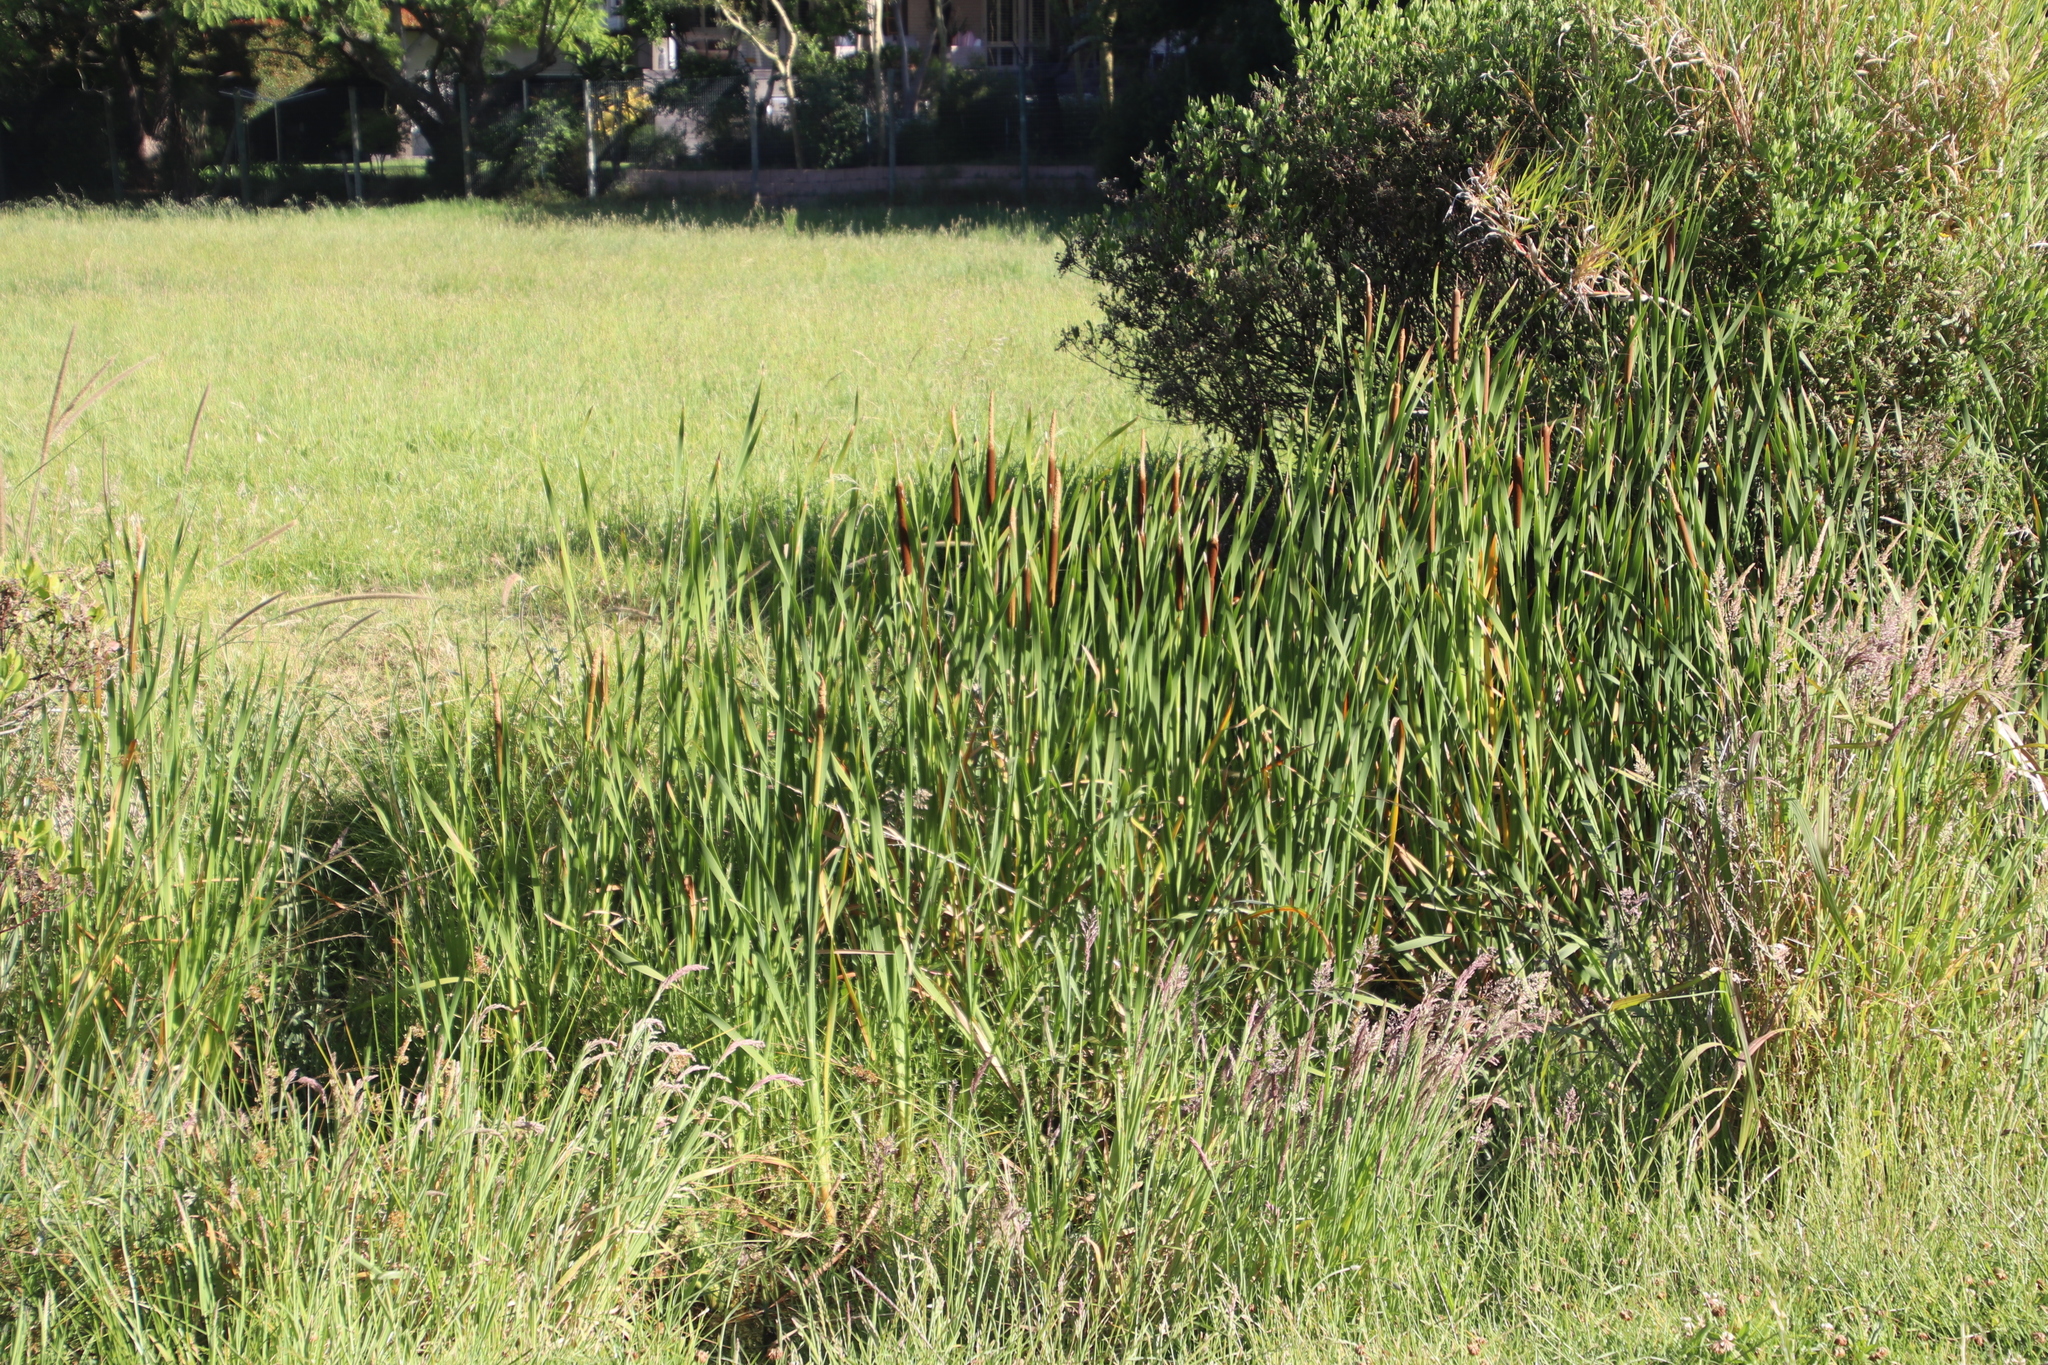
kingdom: Plantae
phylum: Tracheophyta
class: Liliopsida
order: Poales
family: Typhaceae
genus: Typha
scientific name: Typha capensis
